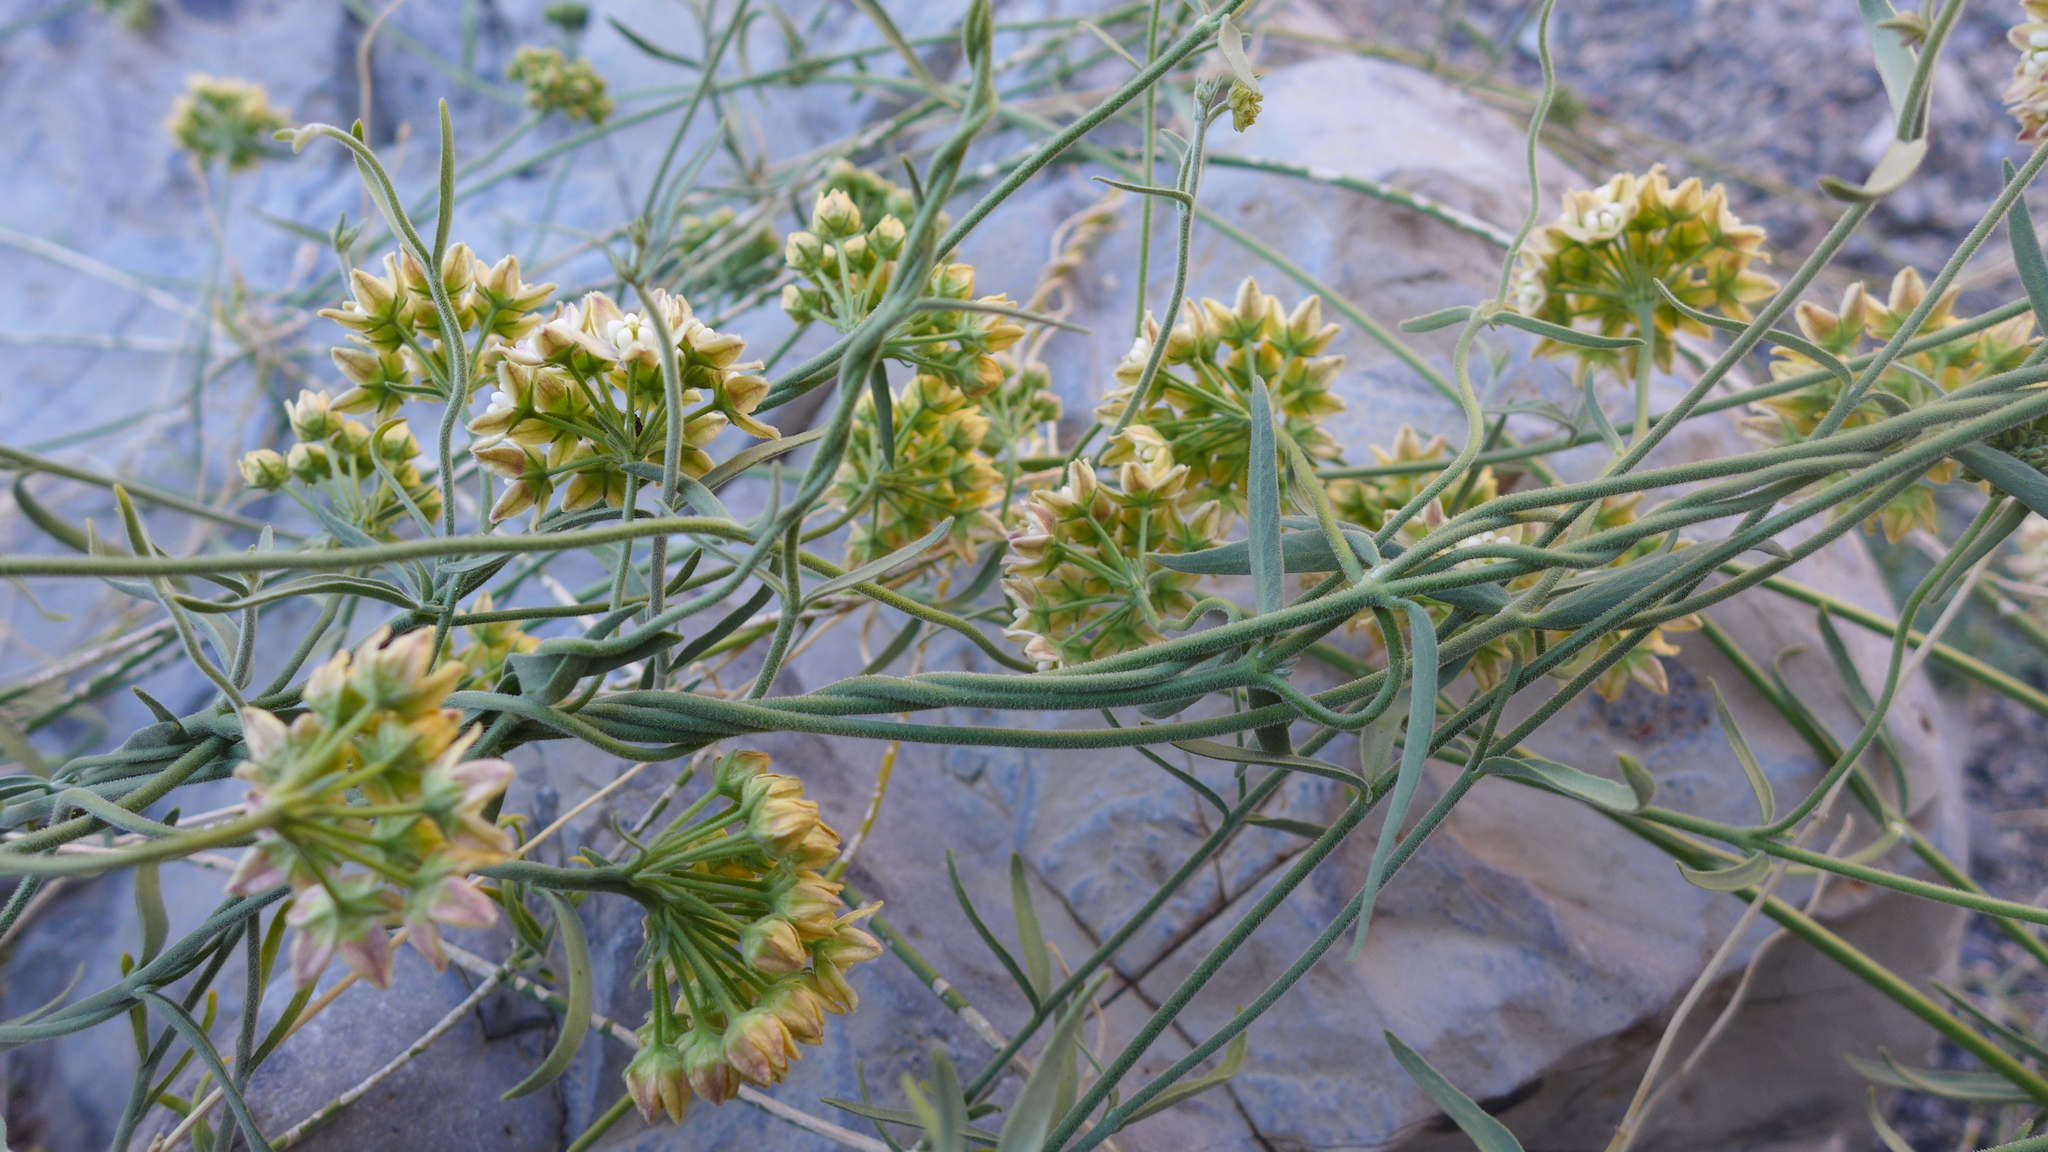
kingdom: Plantae
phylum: Tracheophyta
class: Magnoliopsida
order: Gentianales
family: Apocynaceae
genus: Funastrum
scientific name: Funastrum hirtellum
